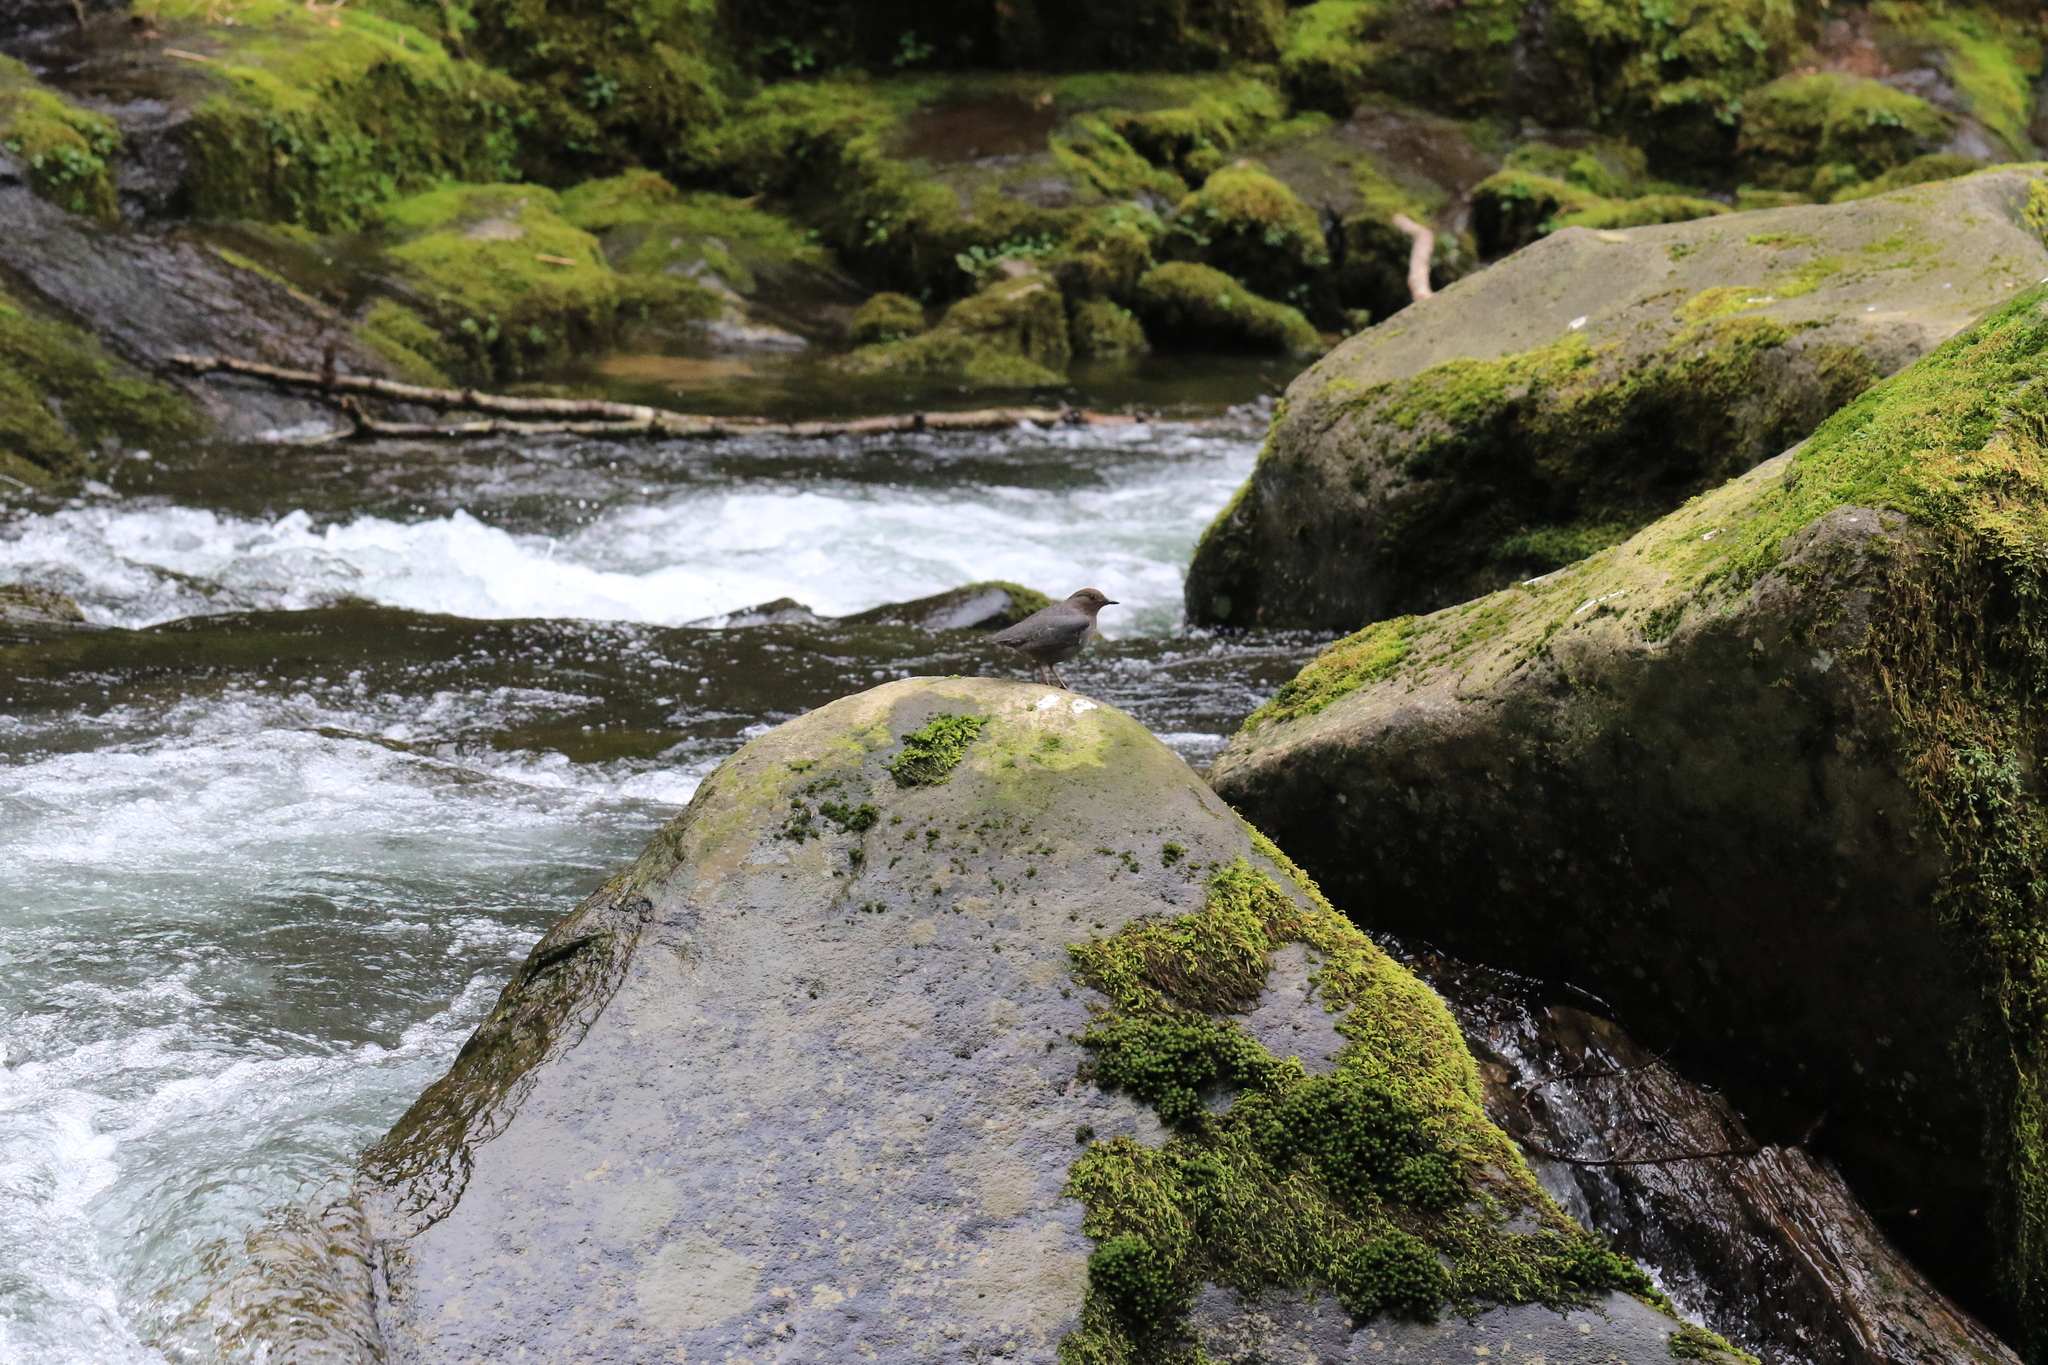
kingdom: Animalia
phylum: Chordata
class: Aves
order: Passeriformes
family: Cinclidae
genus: Cinclus
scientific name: Cinclus mexicanus
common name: American dipper
